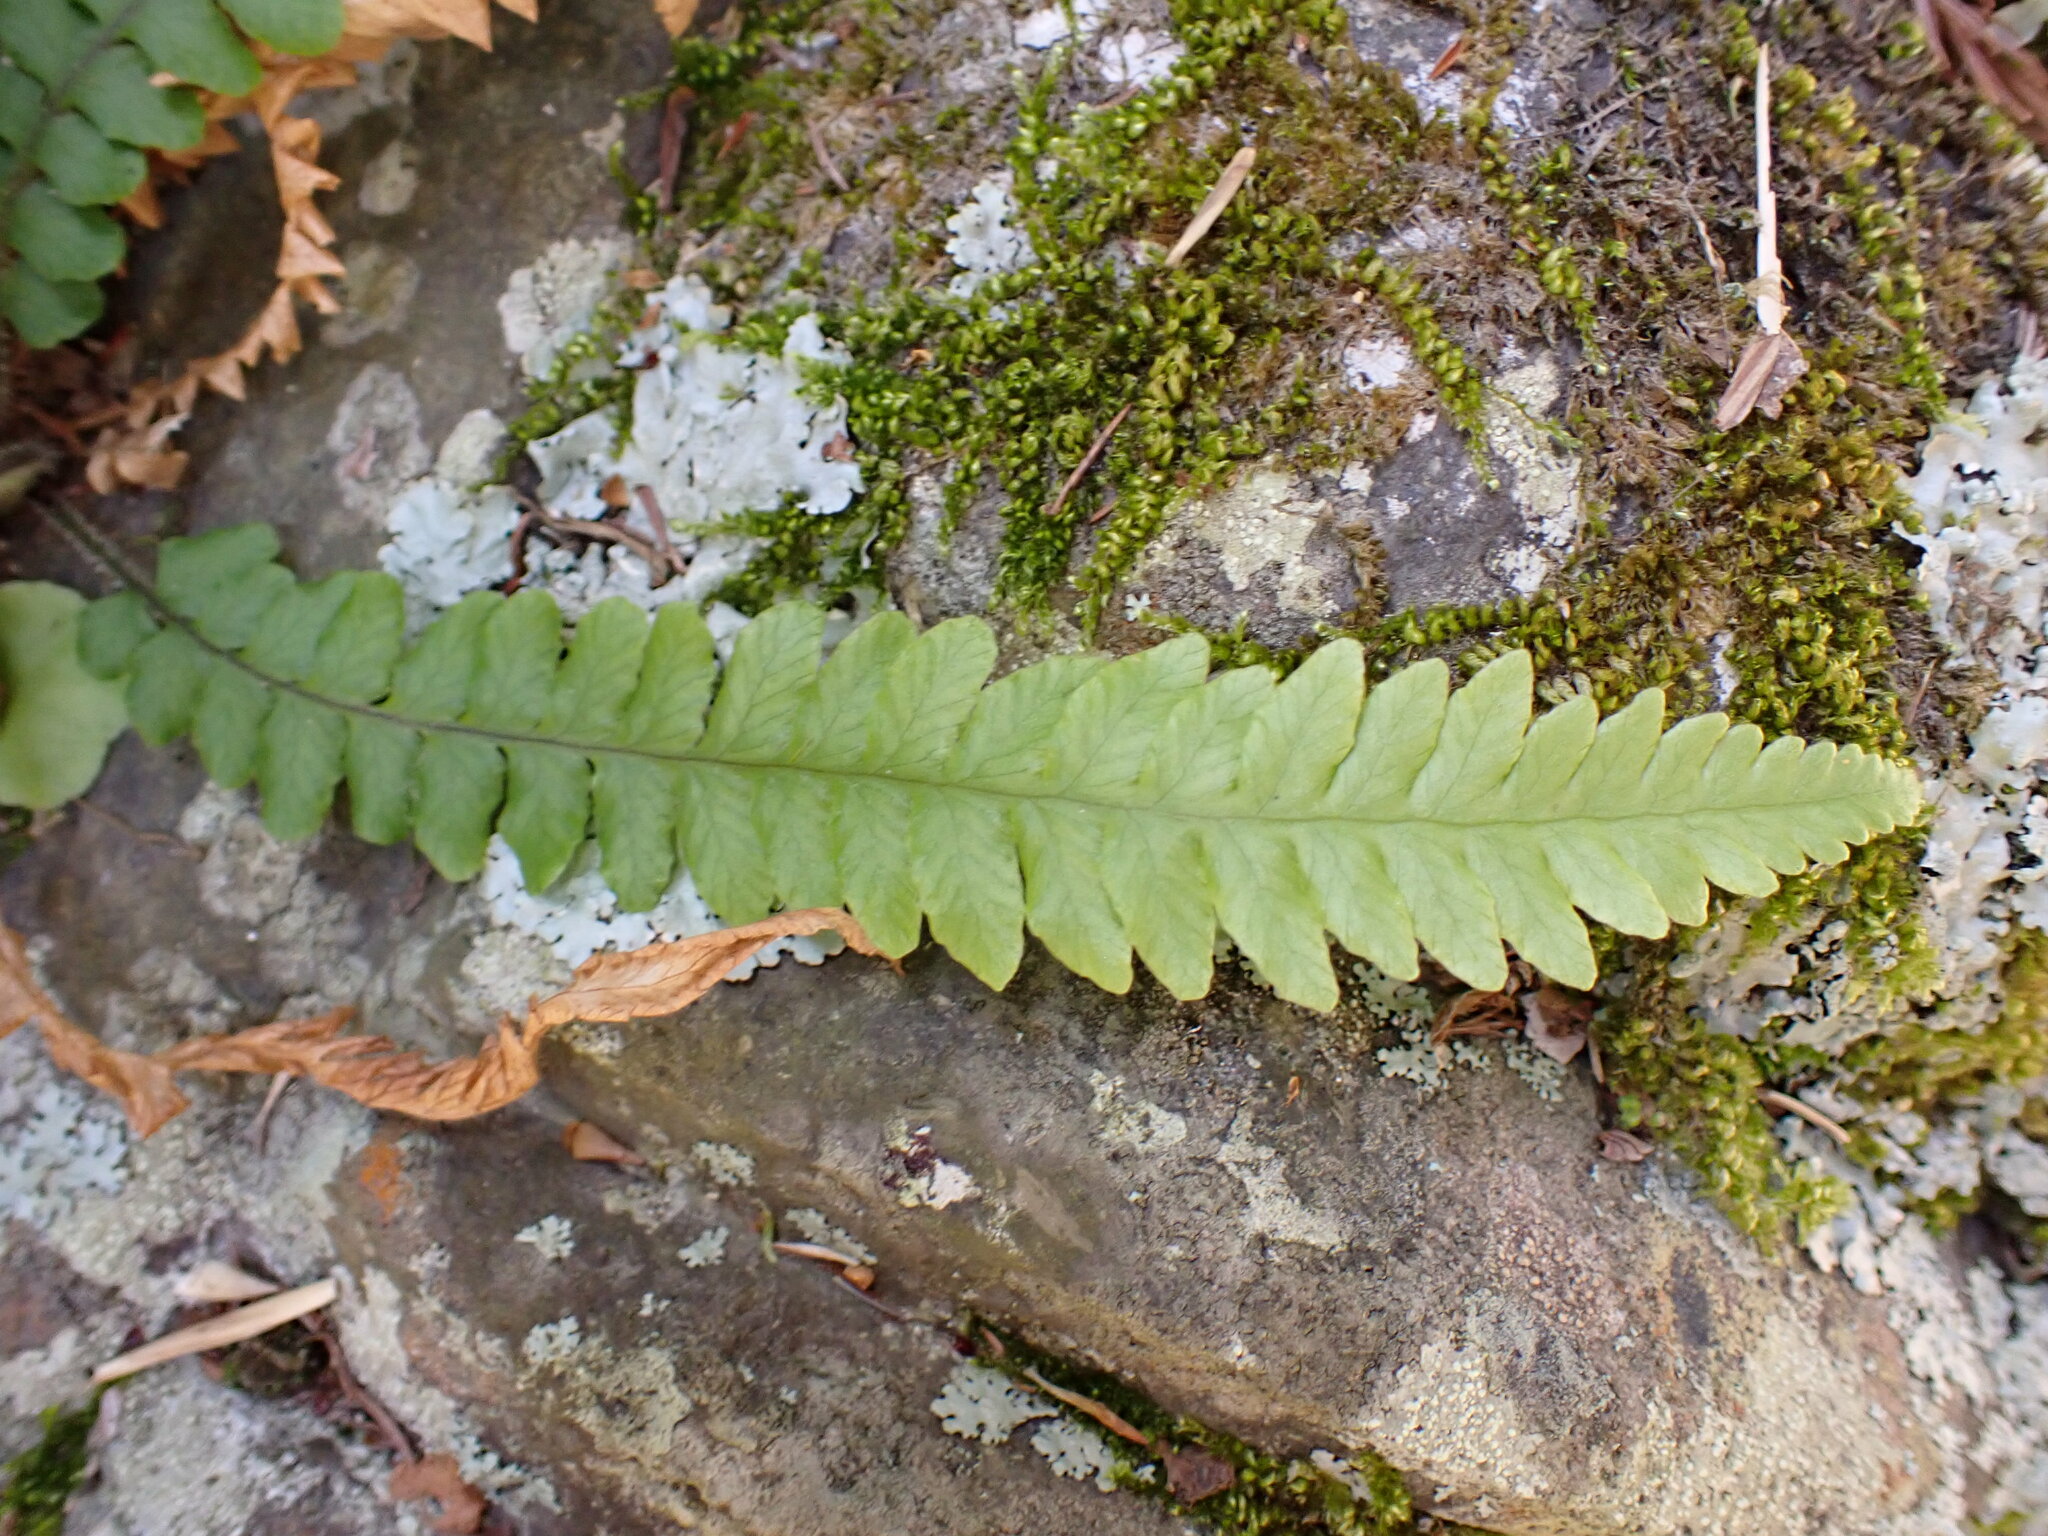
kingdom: Plantae
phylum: Tracheophyta
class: Polypodiopsida
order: Polypodiales
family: Thelypteridaceae
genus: Phegopteris
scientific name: Phegopteris decursive-pinnata
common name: Japanese beech fern
